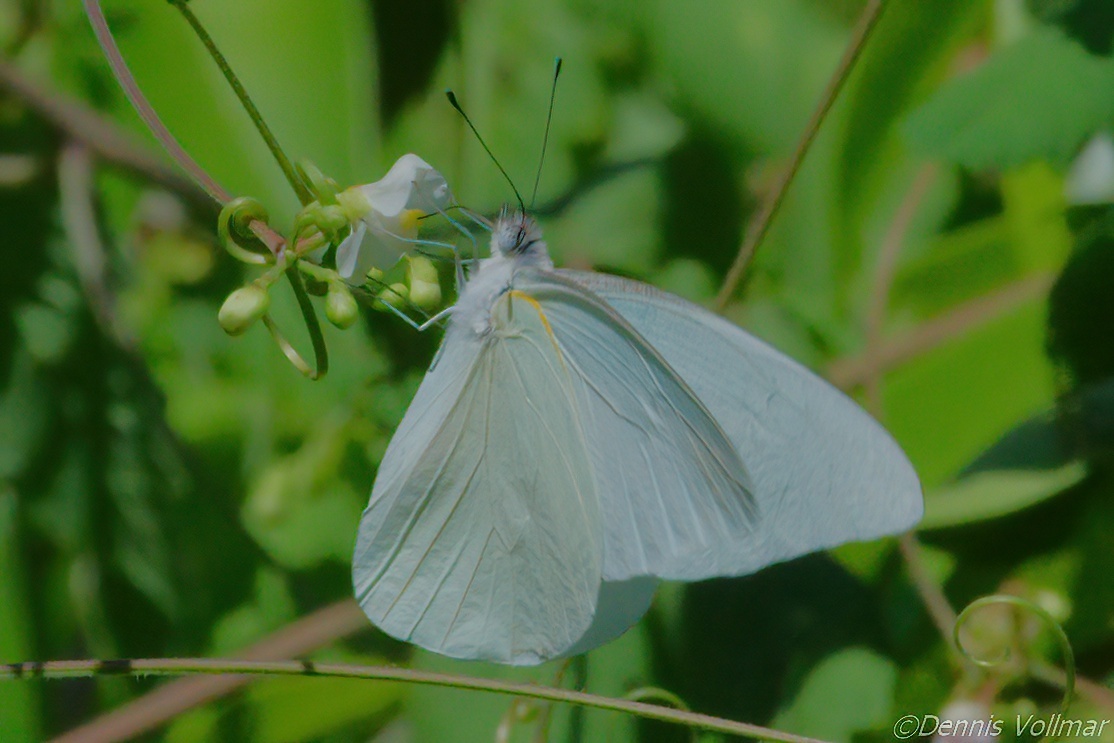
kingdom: Animalia
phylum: Arthropoda
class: Insecta
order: Lepidoptera
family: Pieridae
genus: Glutophrissa
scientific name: Glutophrissa drusilla
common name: Florida white
